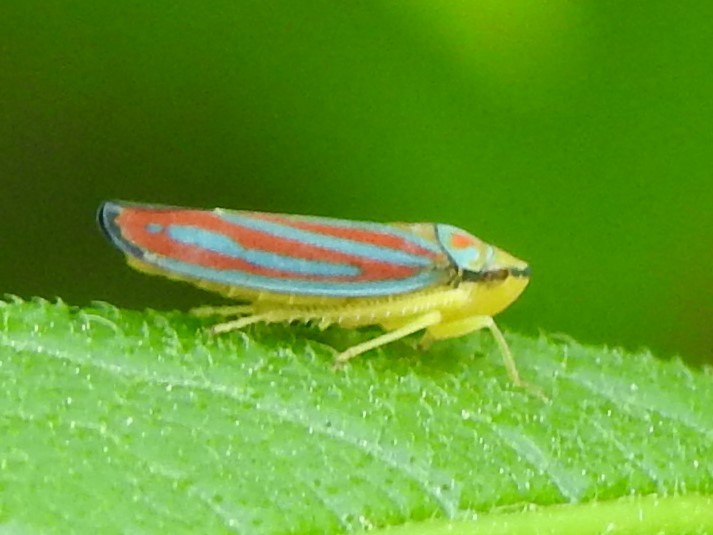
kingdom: Animalia
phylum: Arthropoda
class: Insecta
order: Hemiptera
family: Cicadellidae
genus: Graphocephala
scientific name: Graphocephala coccinea
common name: Candy-striped leafhopper
